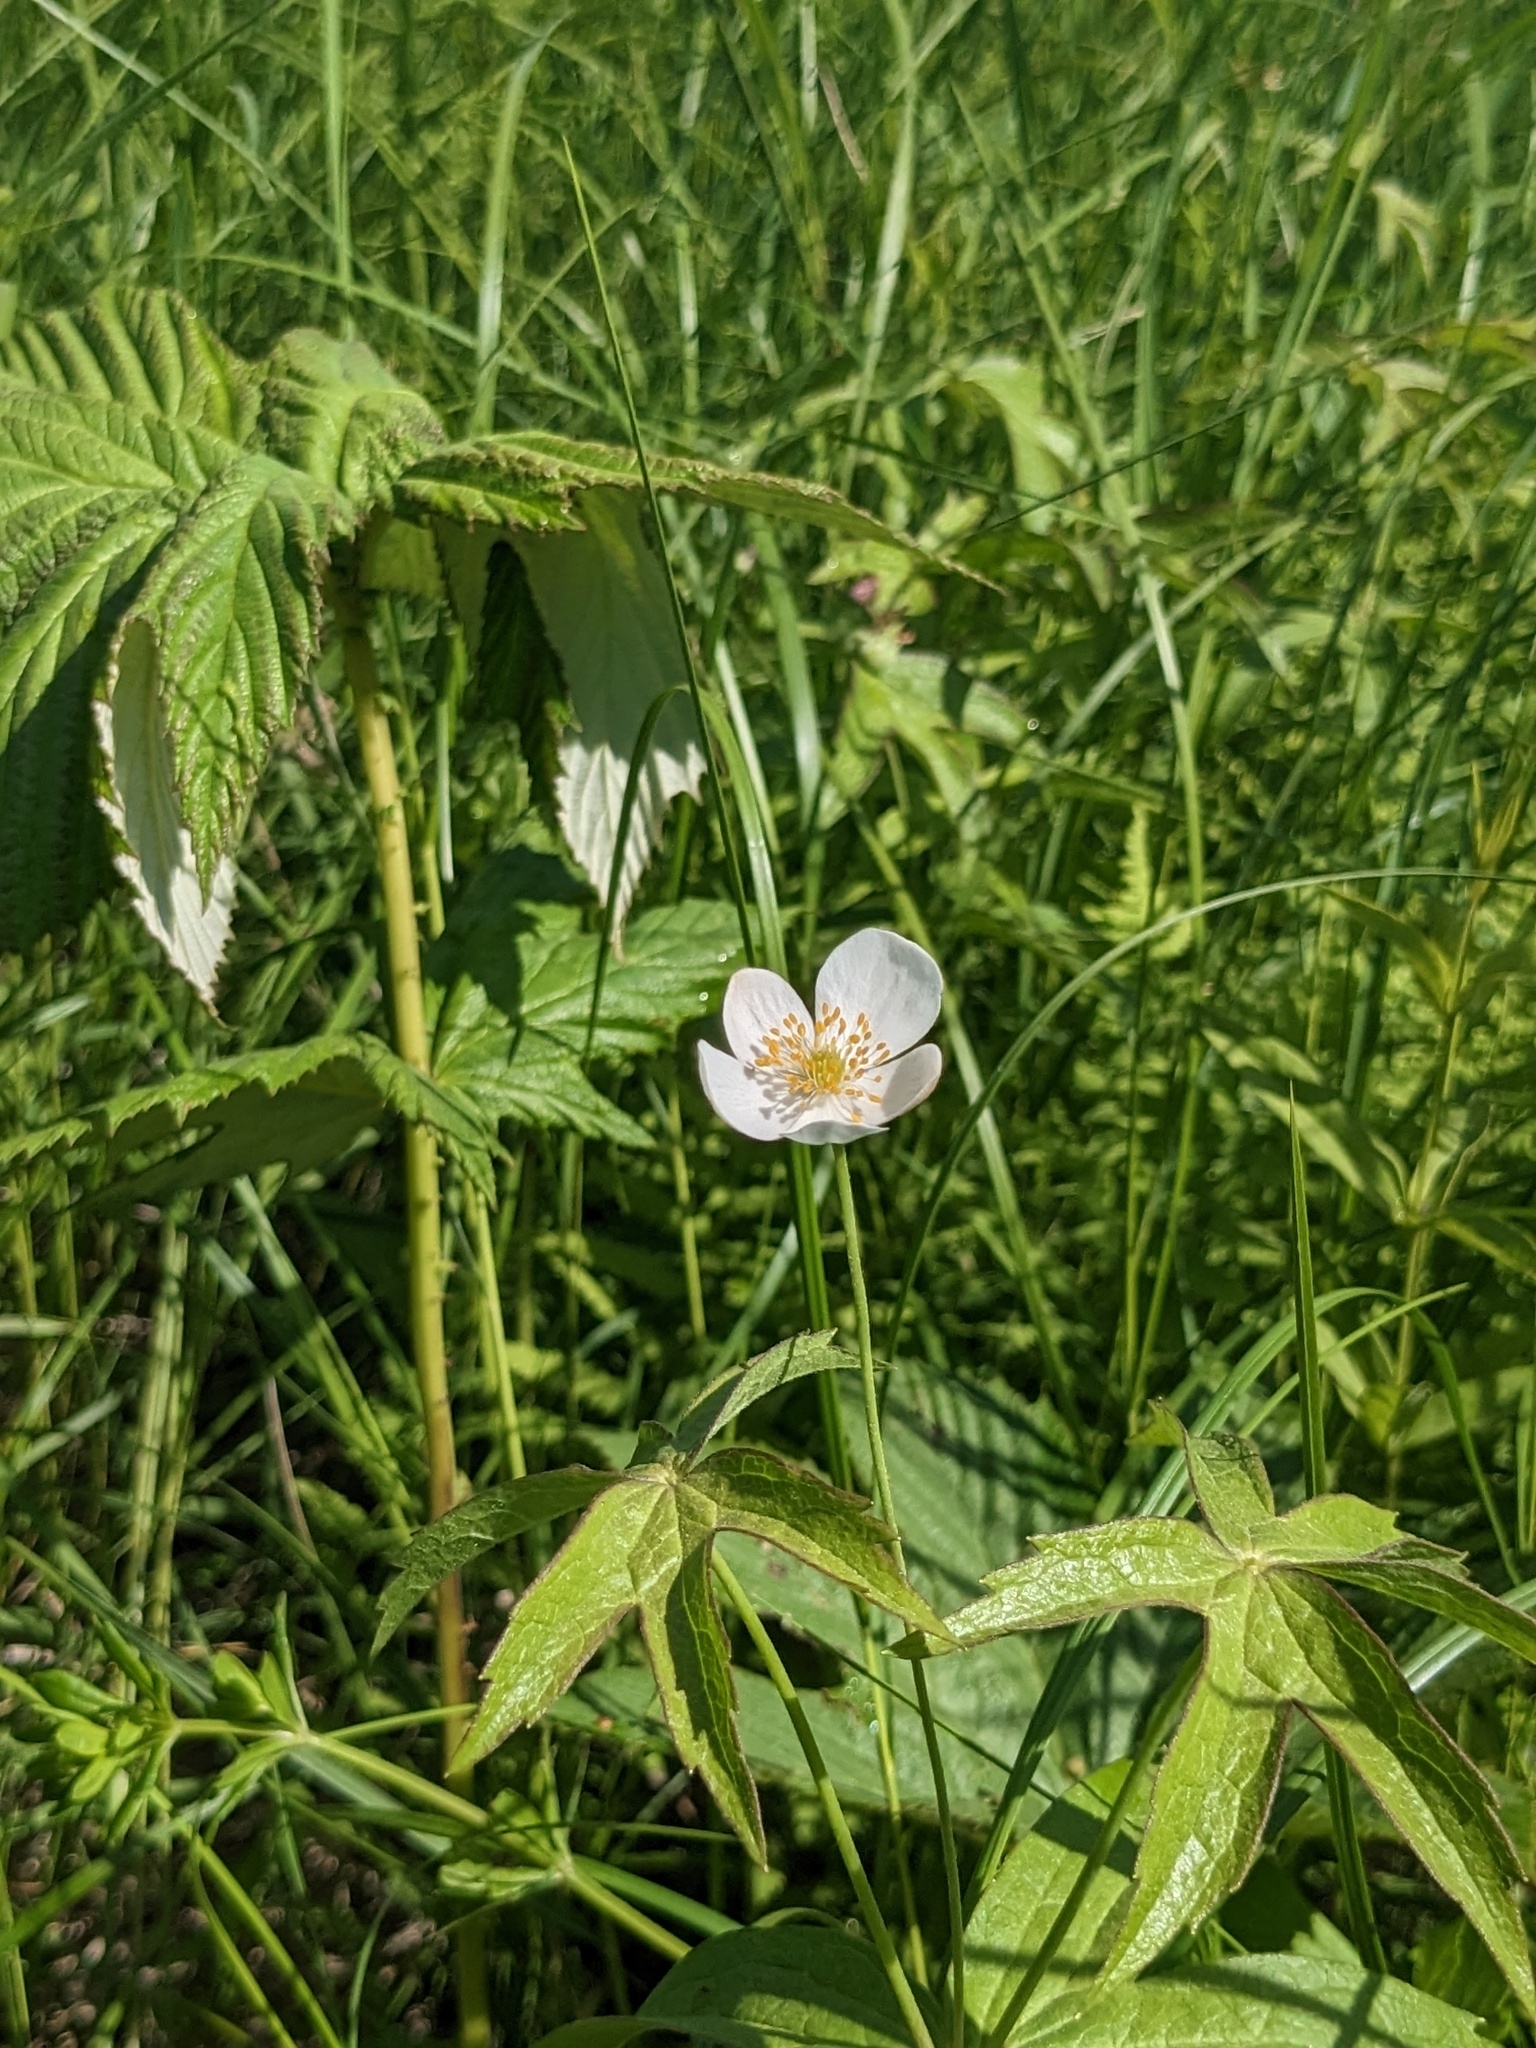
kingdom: Plantae
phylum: Tracheophyta
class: Magnoliopsida
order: Ranunculales
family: Ranunculaceae
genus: Anemonastrum
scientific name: Anemonastrum dichotomum
